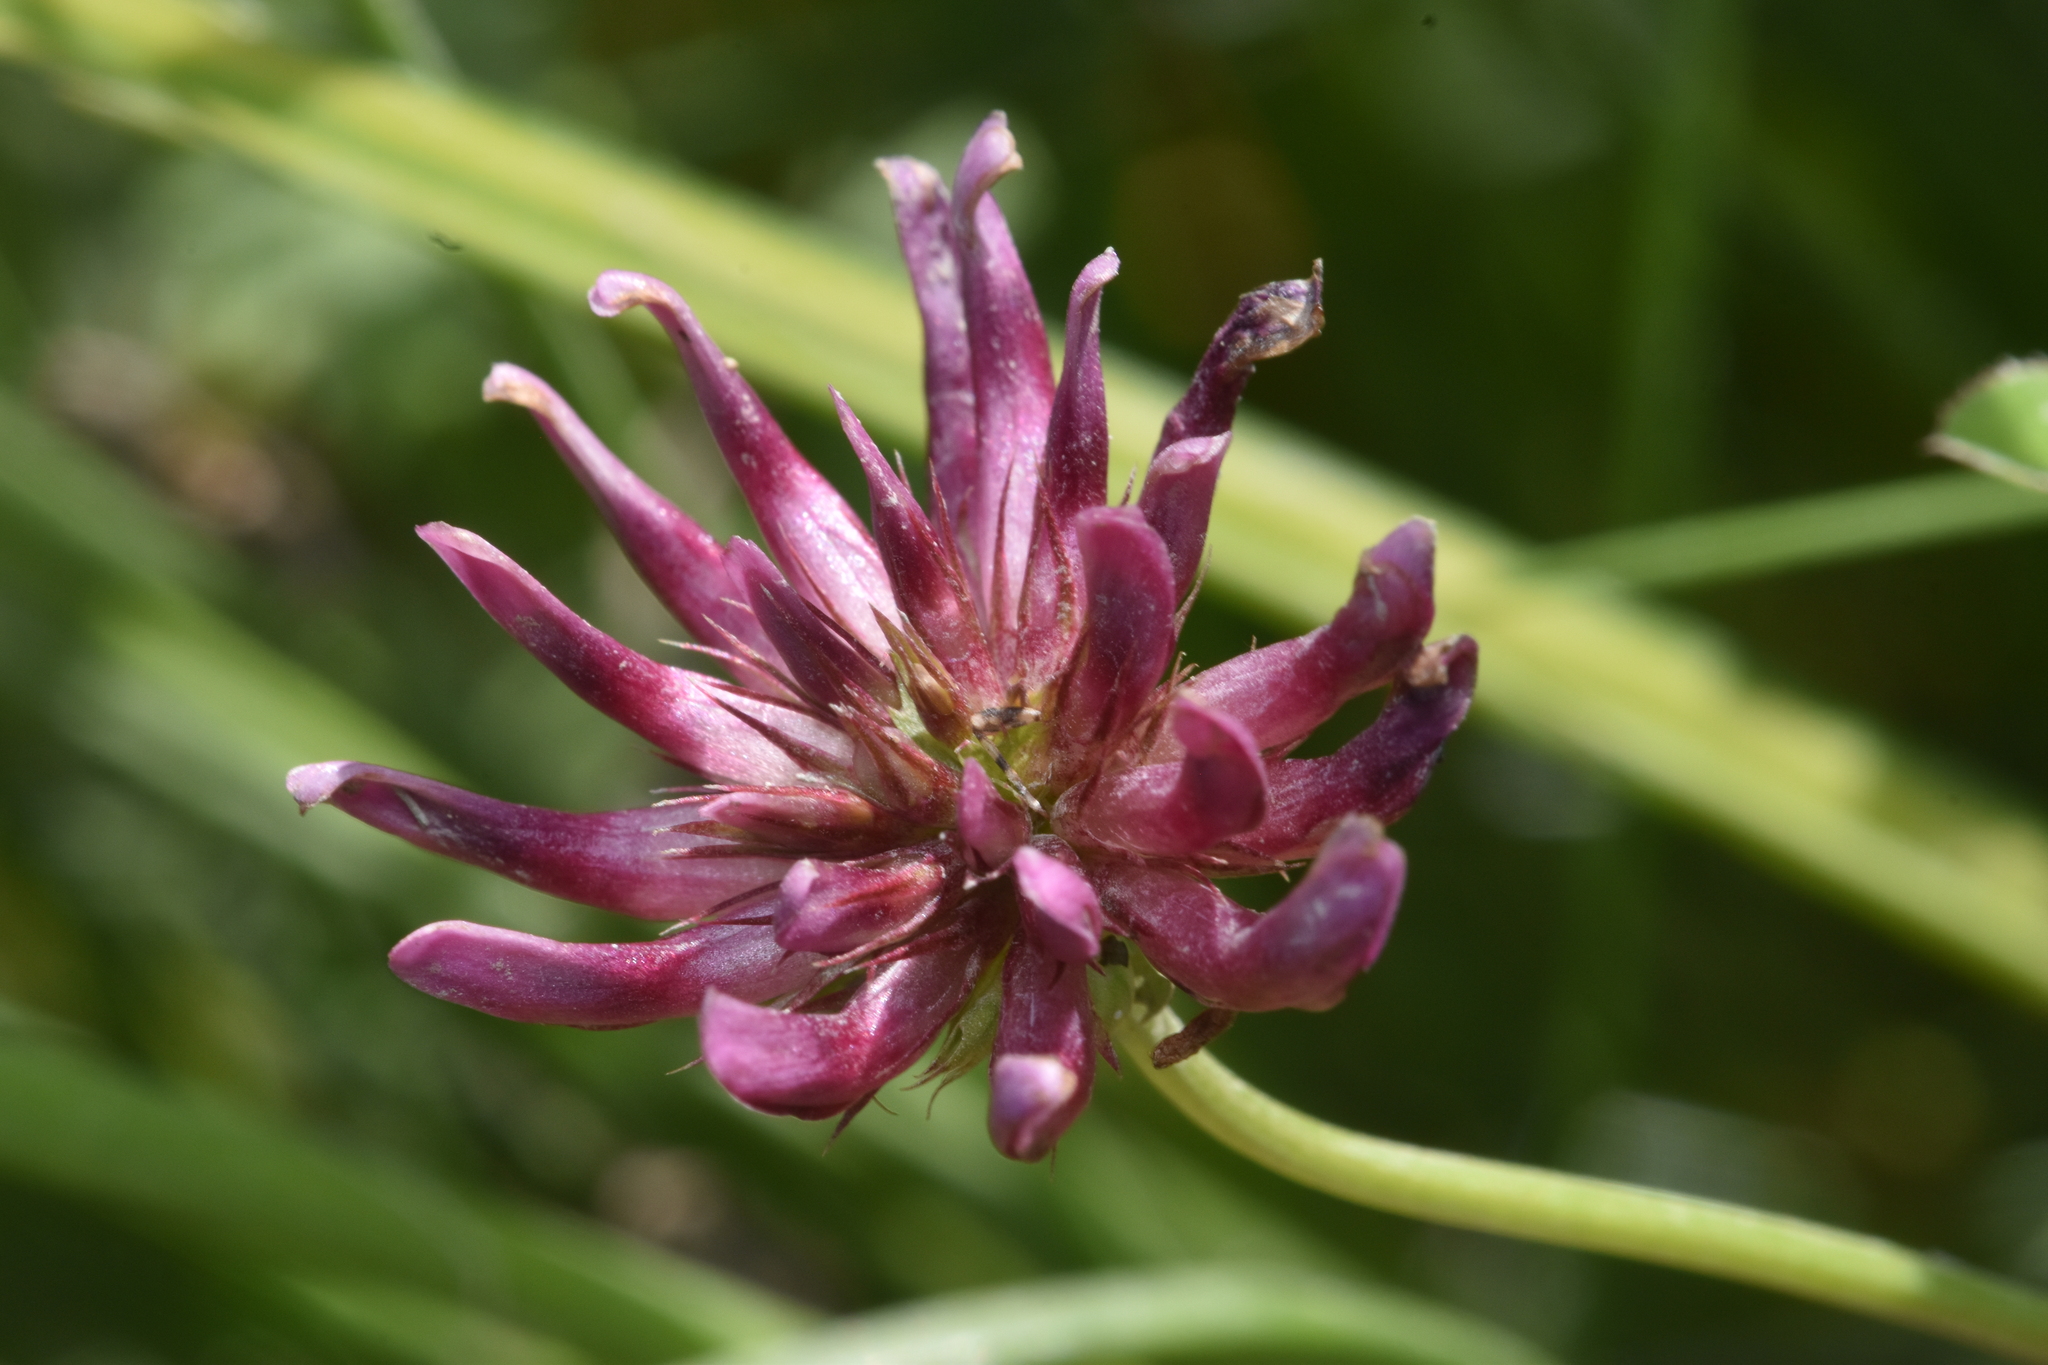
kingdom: Plantae
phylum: Tracheophyta
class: Magnoliopsida
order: Fabales
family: Fabaceae
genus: Trifolium
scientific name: Trifolium wormskioldii
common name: Springbank clover
